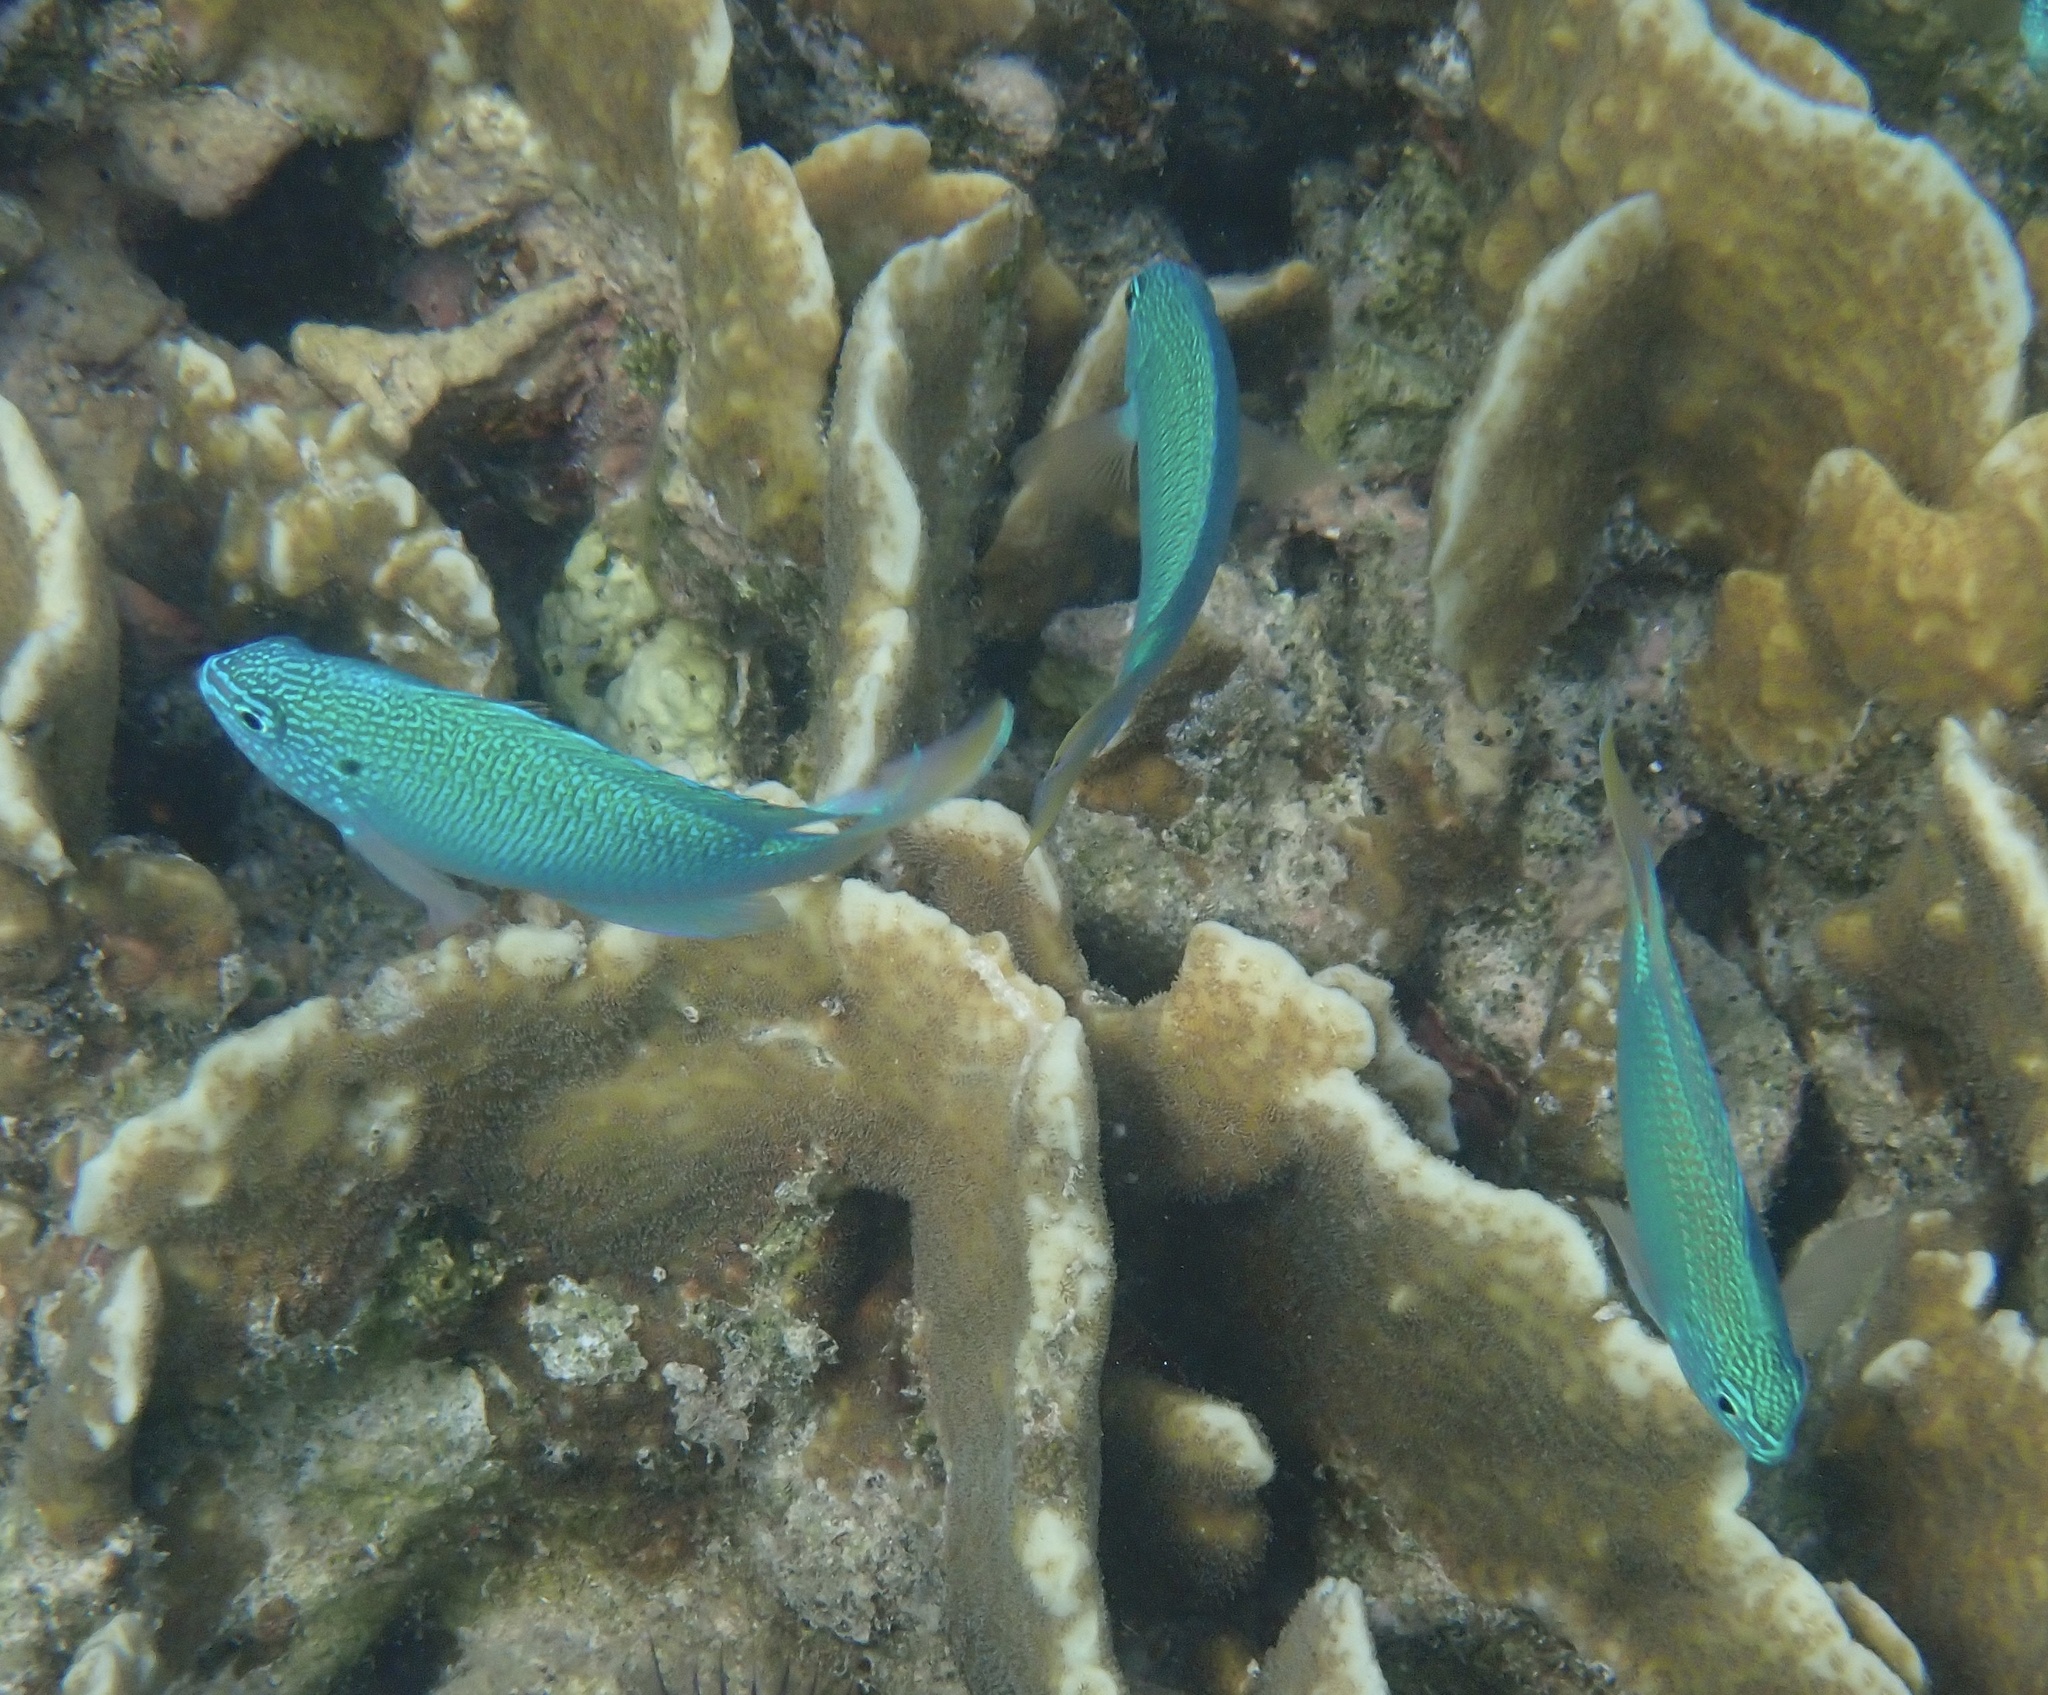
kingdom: Animalia
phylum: Chordata
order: Perciformes
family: Pomacentridae
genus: Pomacentrus
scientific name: Pomacentrus pavo
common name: Sapphire damsel
